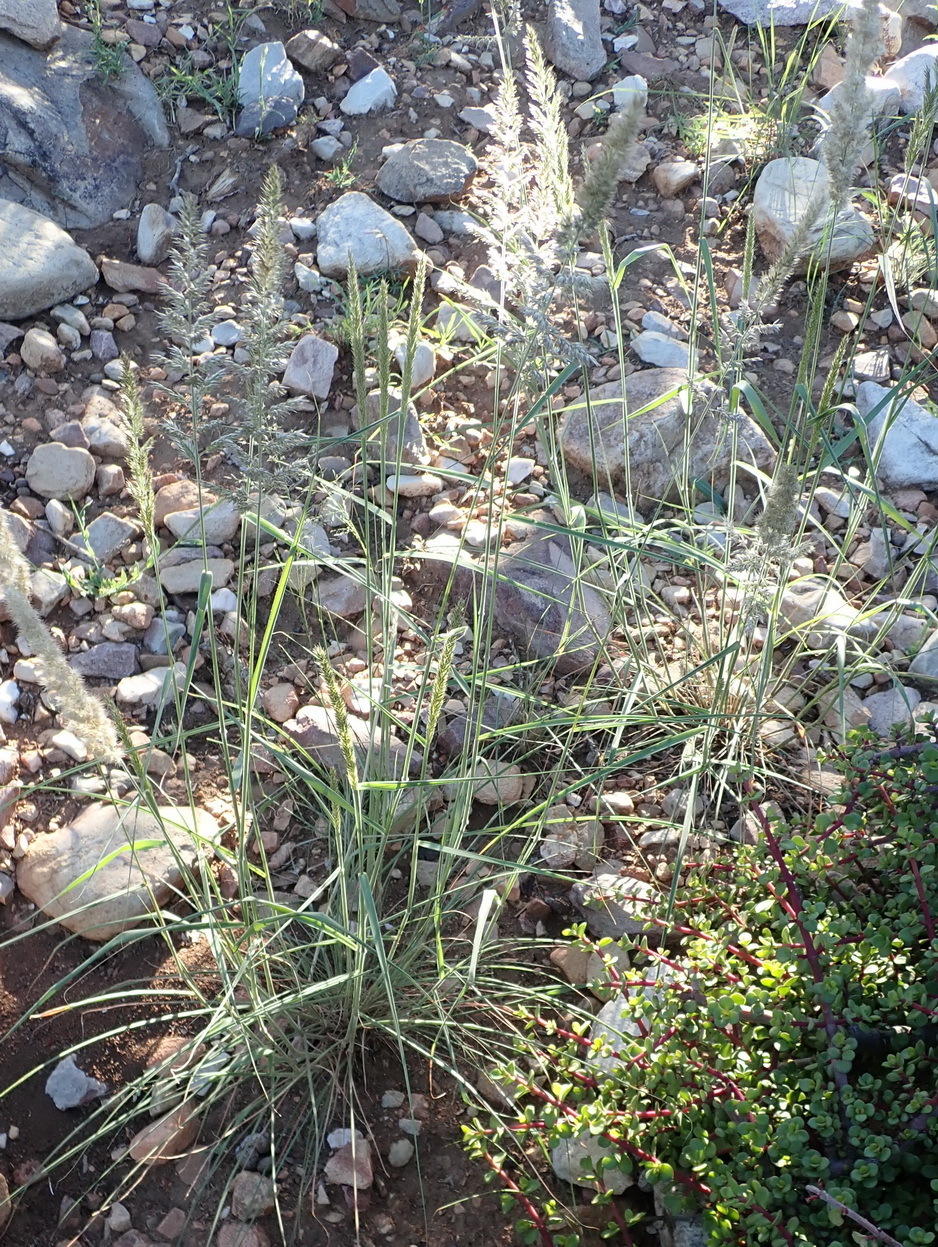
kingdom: Plantae
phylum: Tracheophyta
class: Liliopsida
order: Poales
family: Poaceae
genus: Enneapogon
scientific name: Enneapogon scoparius
